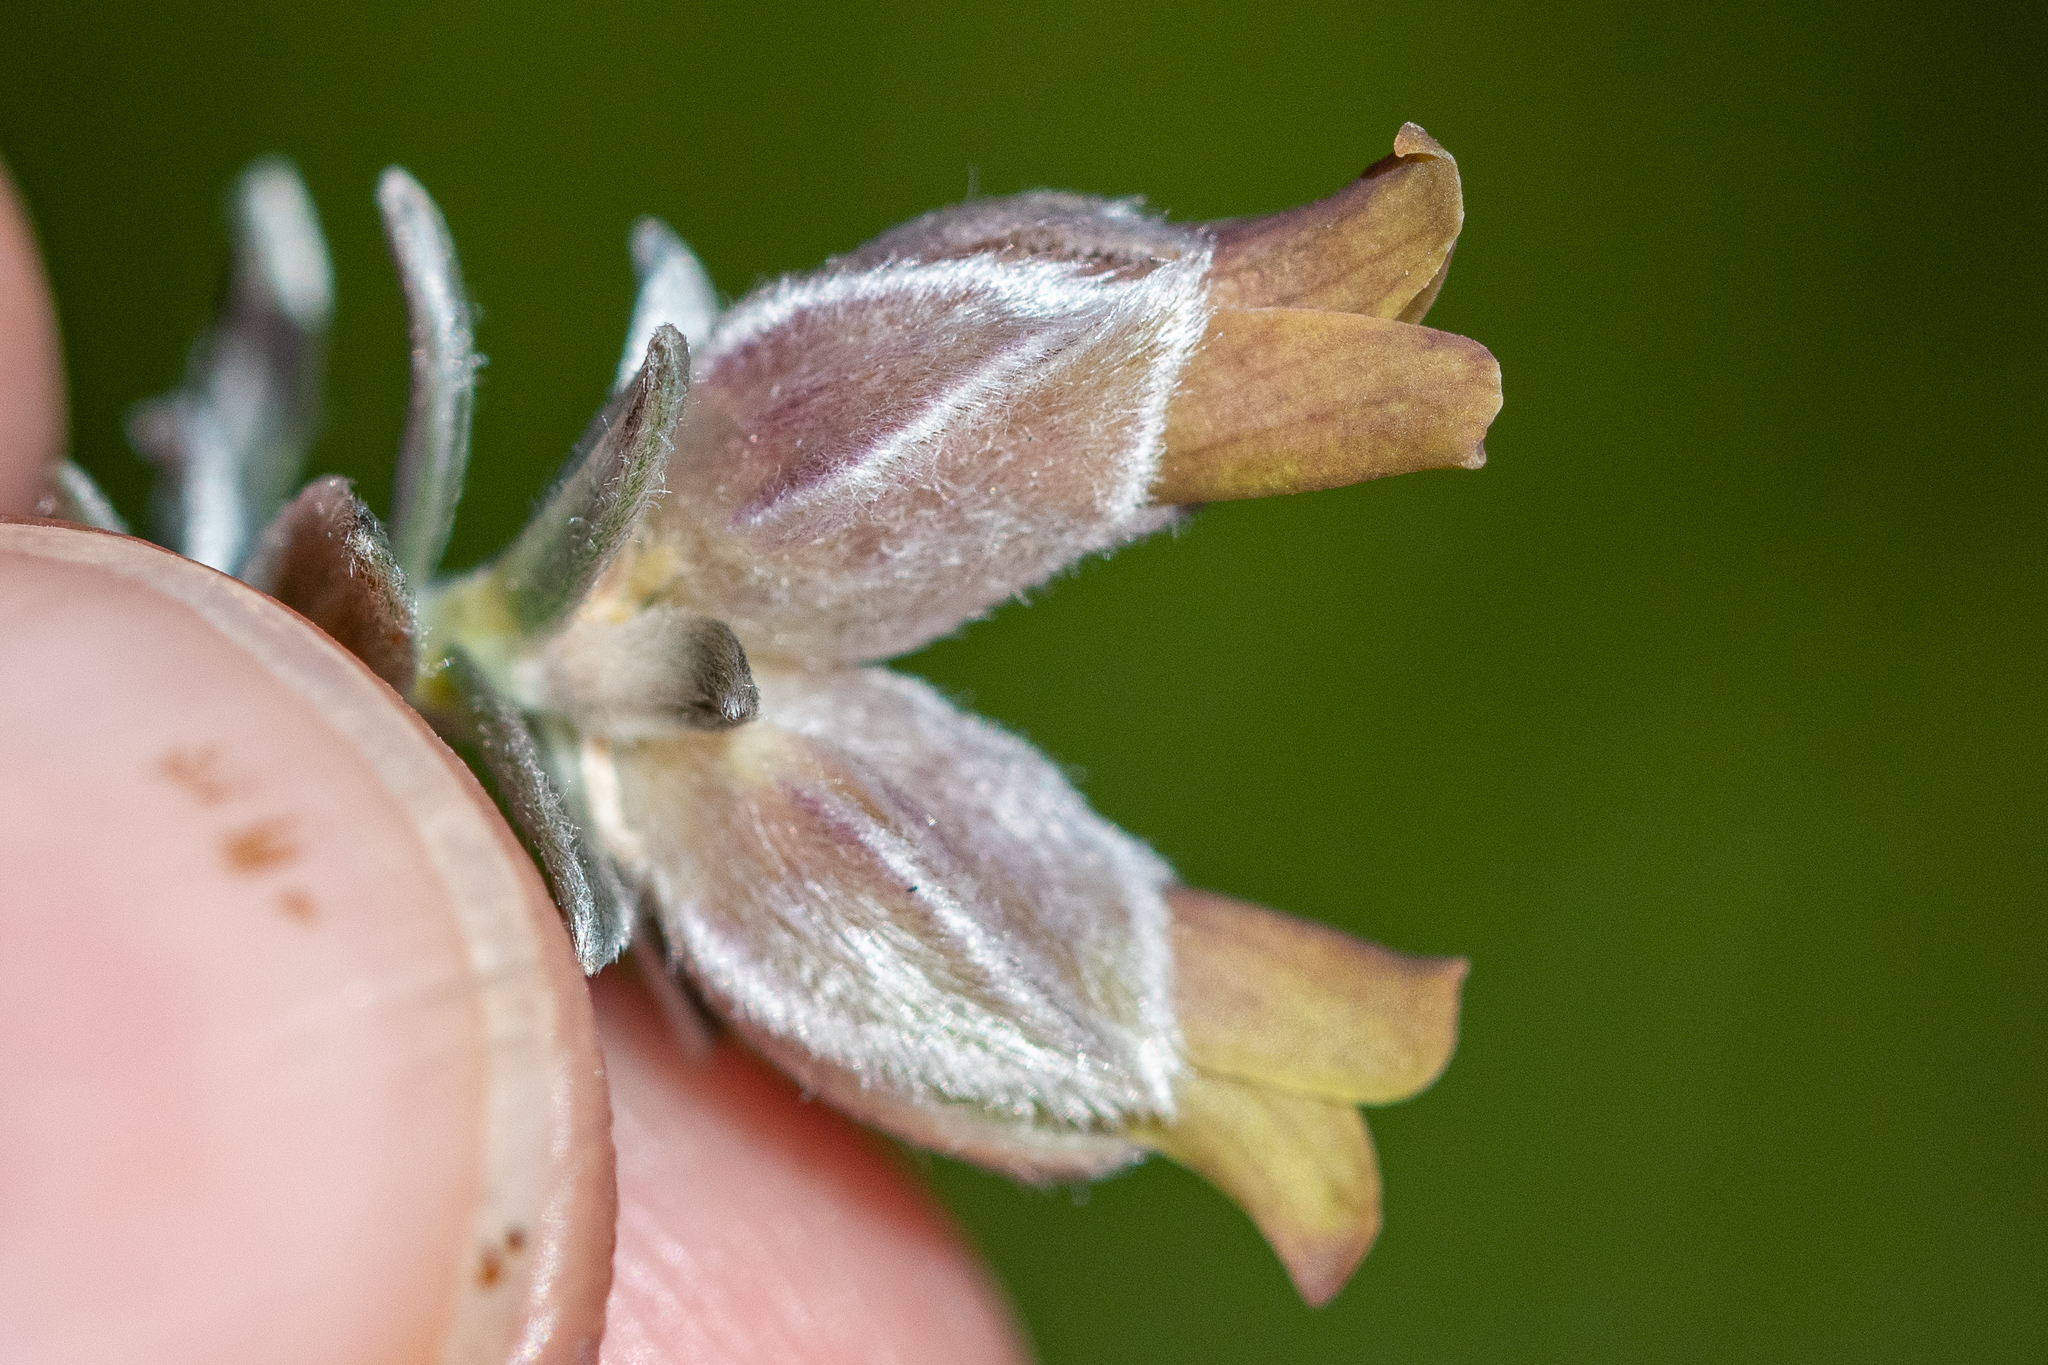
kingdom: Plantae
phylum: Tracheophyta
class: Magnoliopsida
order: Fabales
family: Fabaceae
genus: Amphithalea
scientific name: Amphithalea tomentosa
